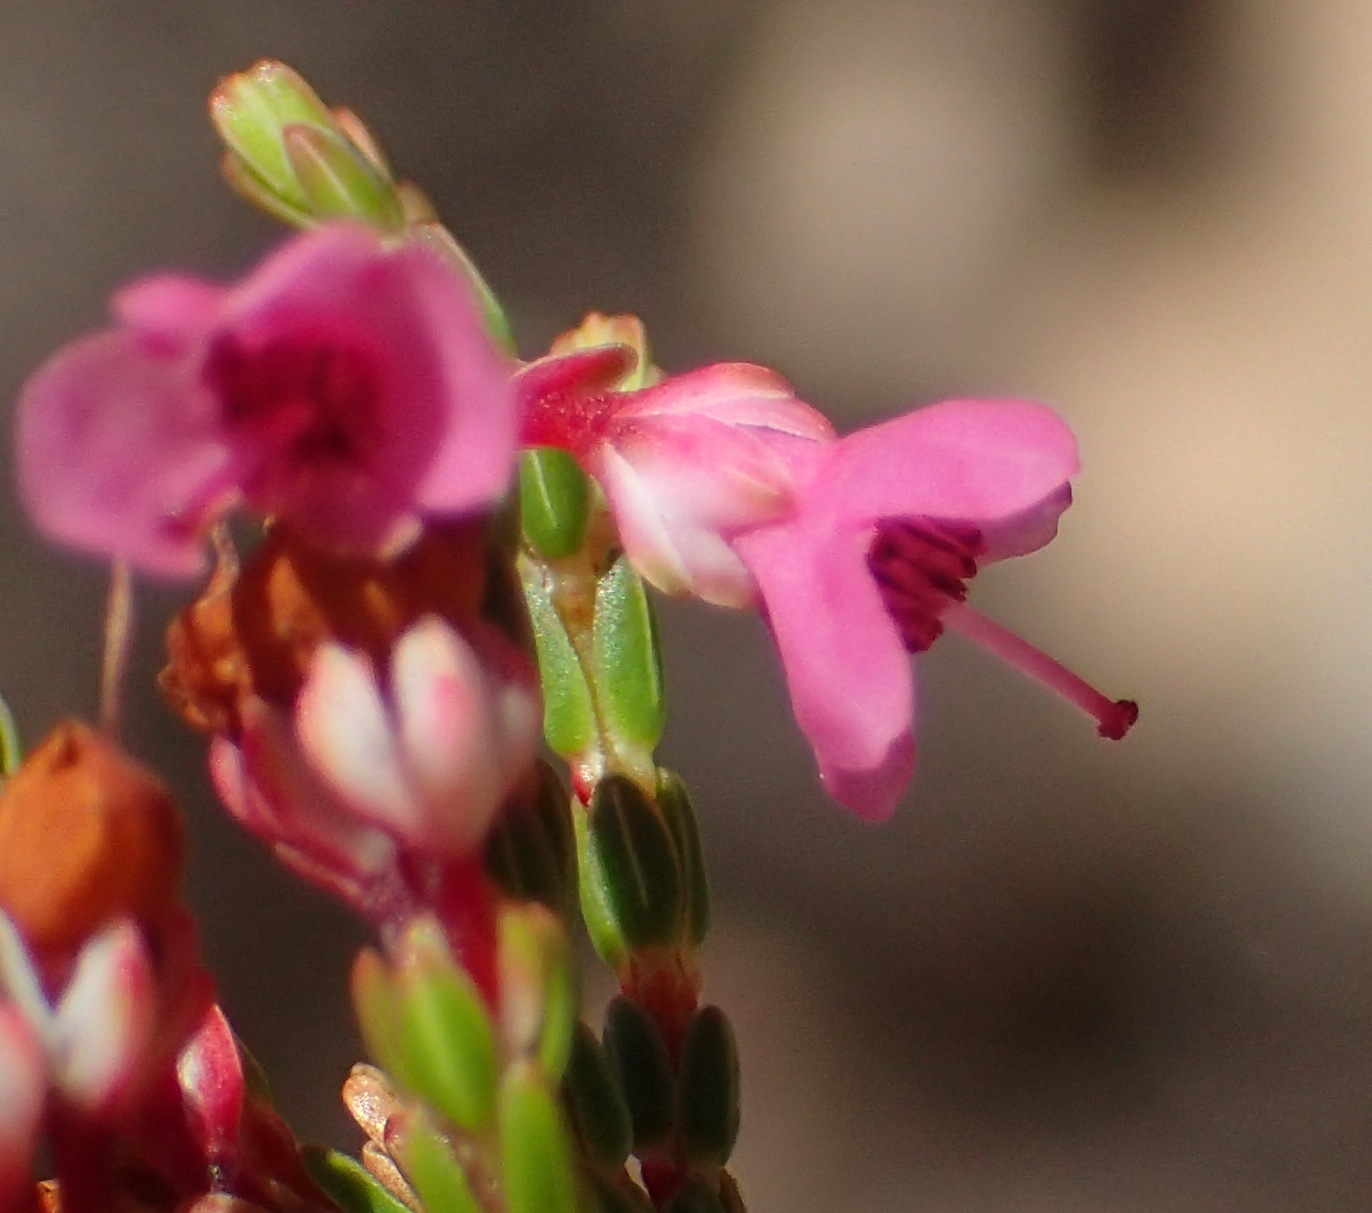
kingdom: Plantae
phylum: Tracheophyta
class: Magnoliopsida
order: Ericales
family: Ericaceae
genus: Erica
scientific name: Erica humifusa
